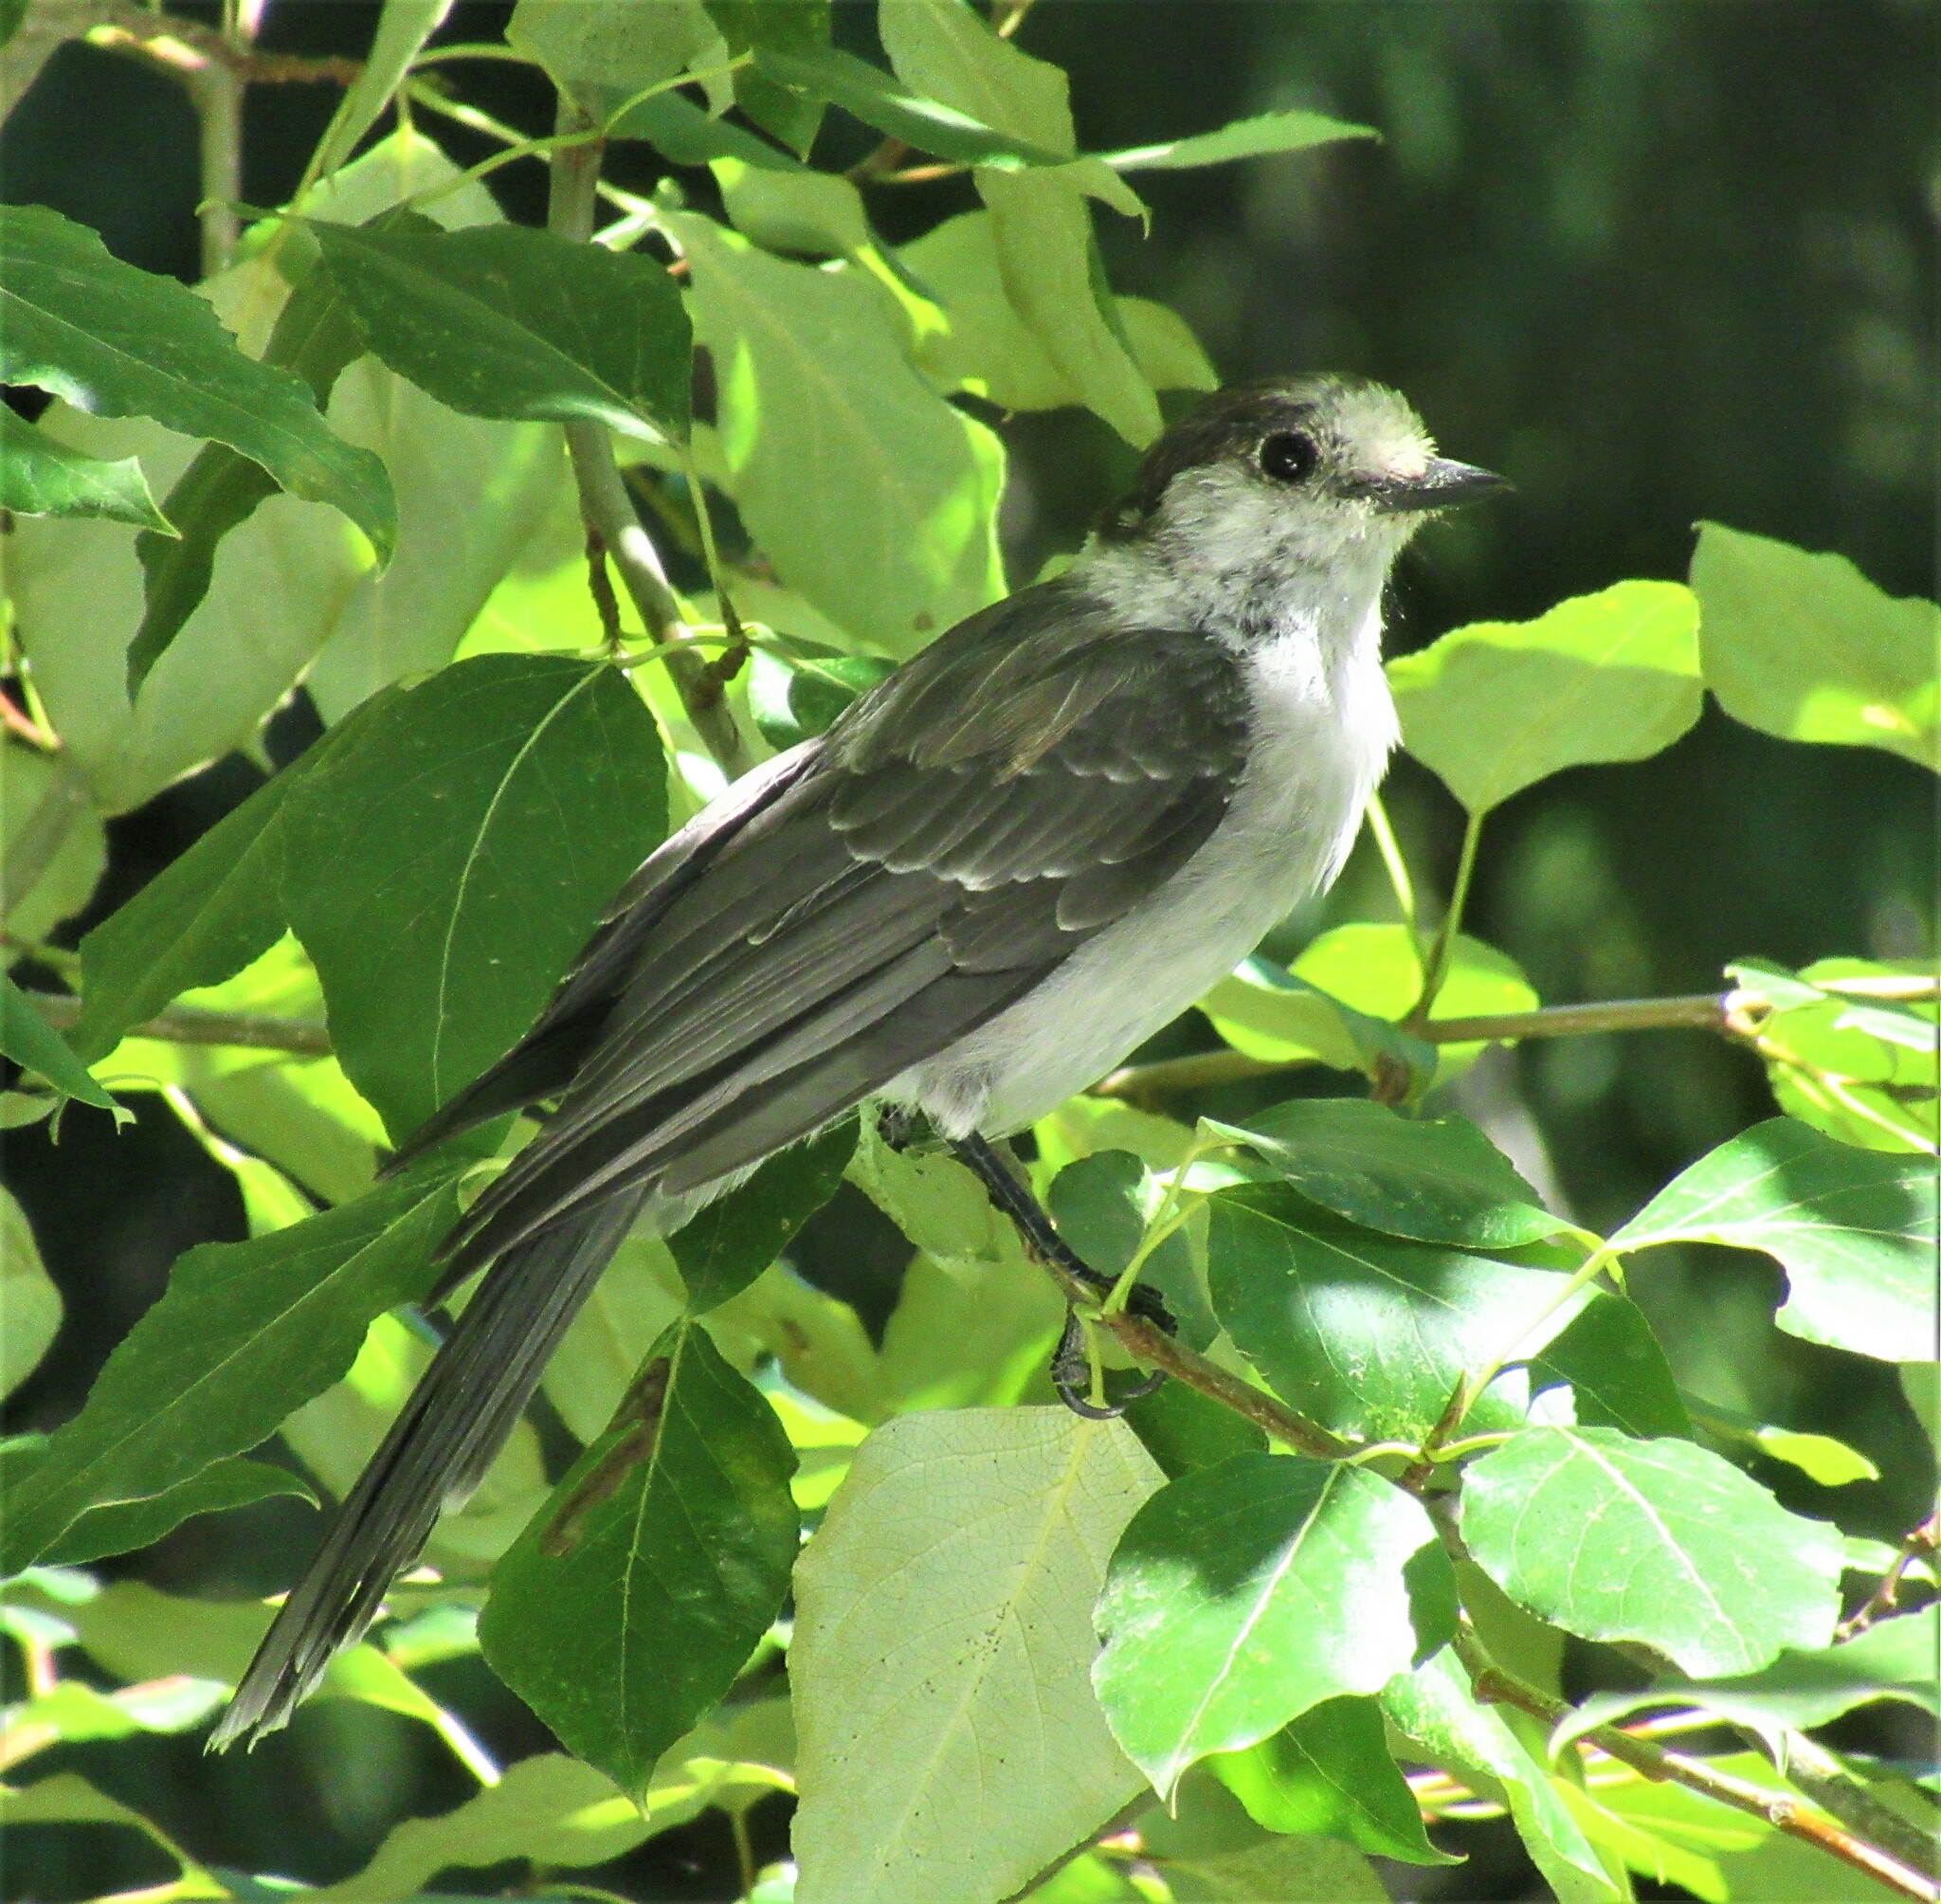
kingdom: Animalia
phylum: Chordata
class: Aves
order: Passeriformes
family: Corvidae
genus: Perisoreus
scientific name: Perisoreus canadensis
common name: Gray jay
